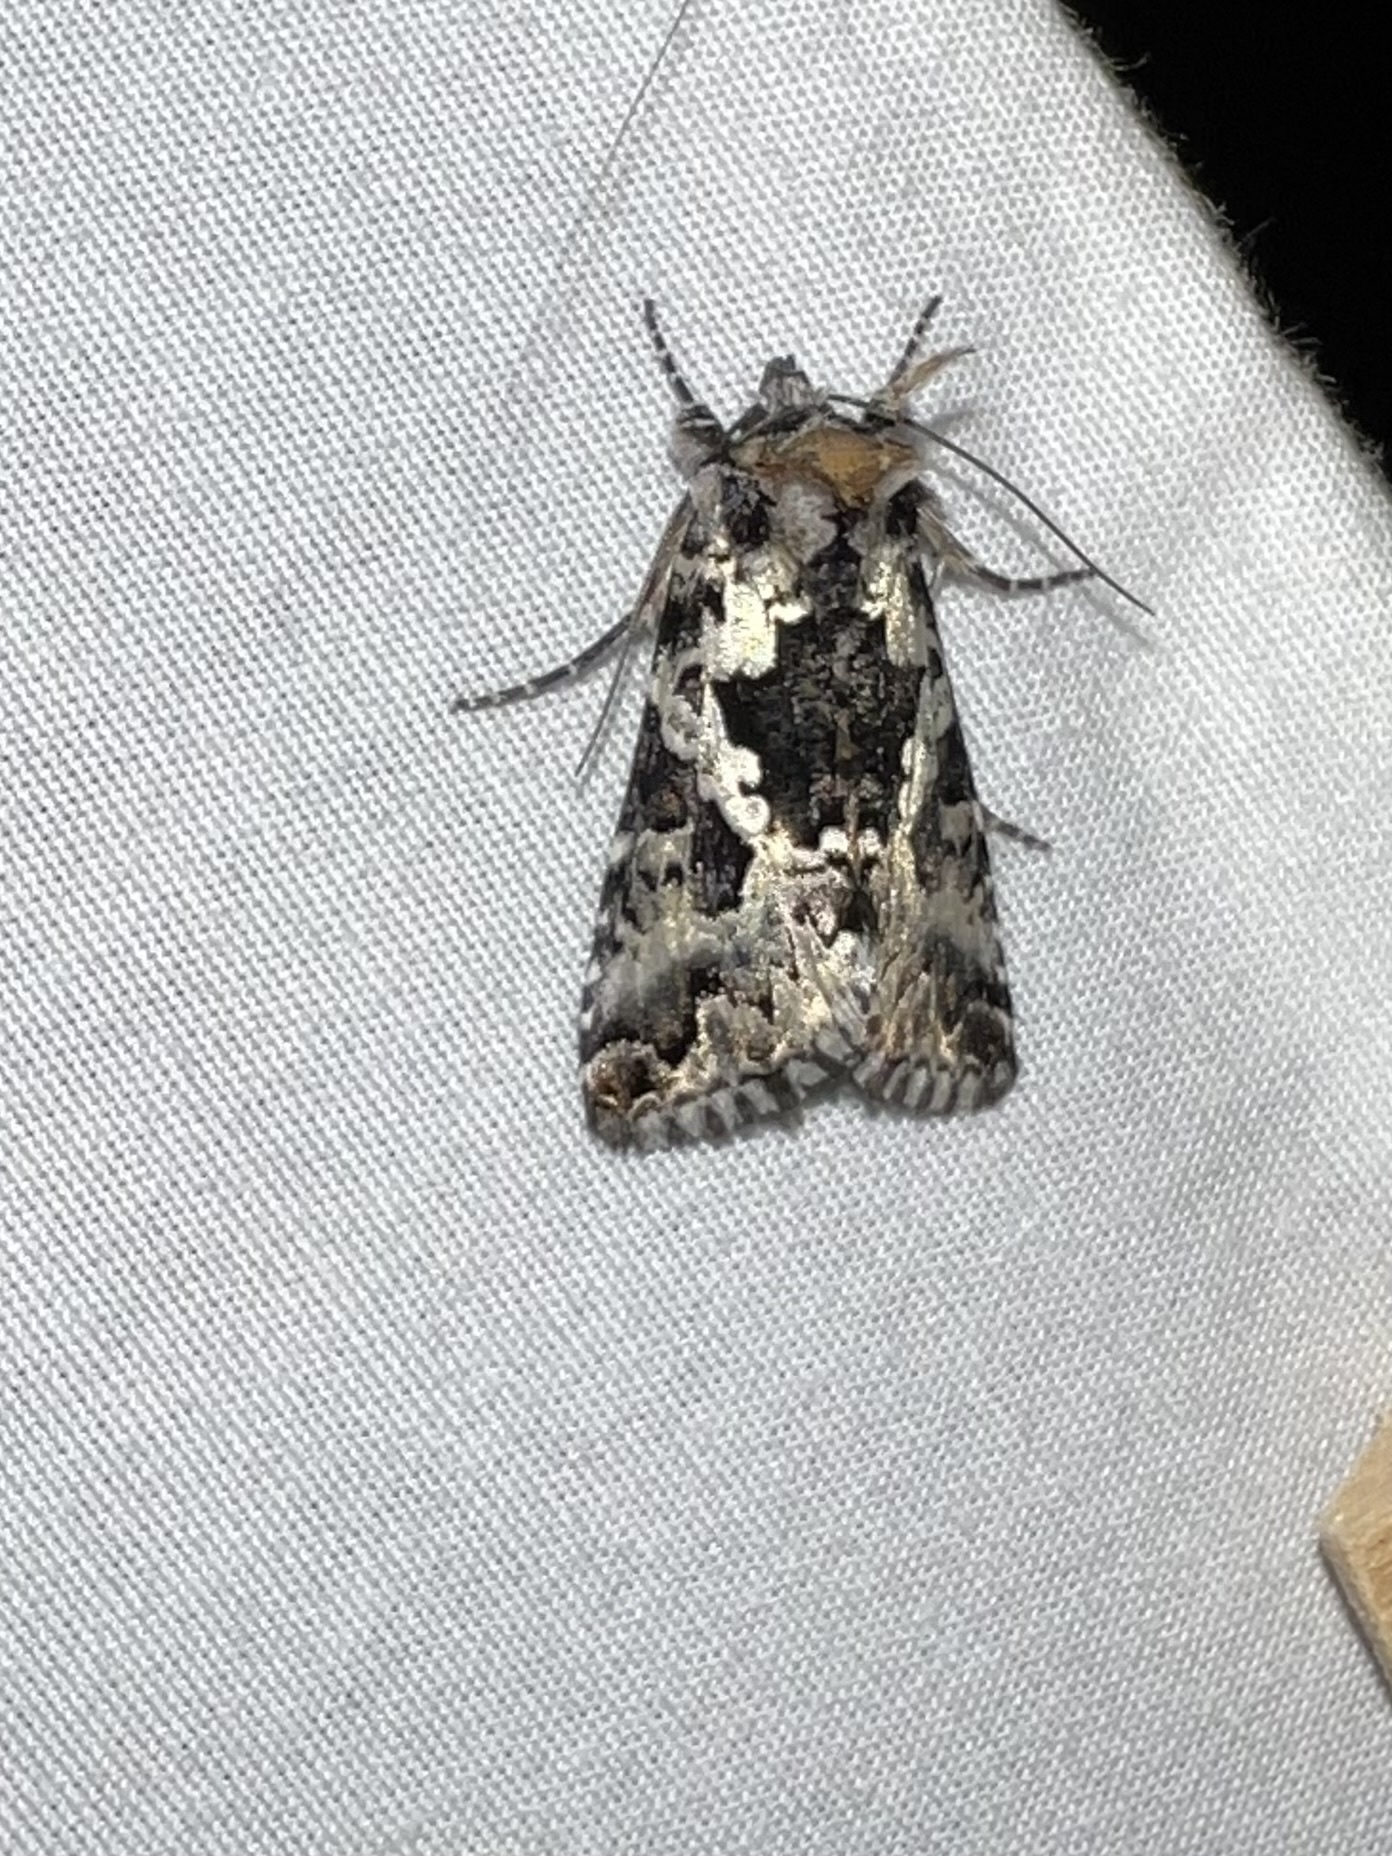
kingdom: Animalia
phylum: Arthropoda
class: Insecta
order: Lepidoptera
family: Noctuidae
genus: Syngrapha
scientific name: Syngrapha rectangula
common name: Angulated cutworm
